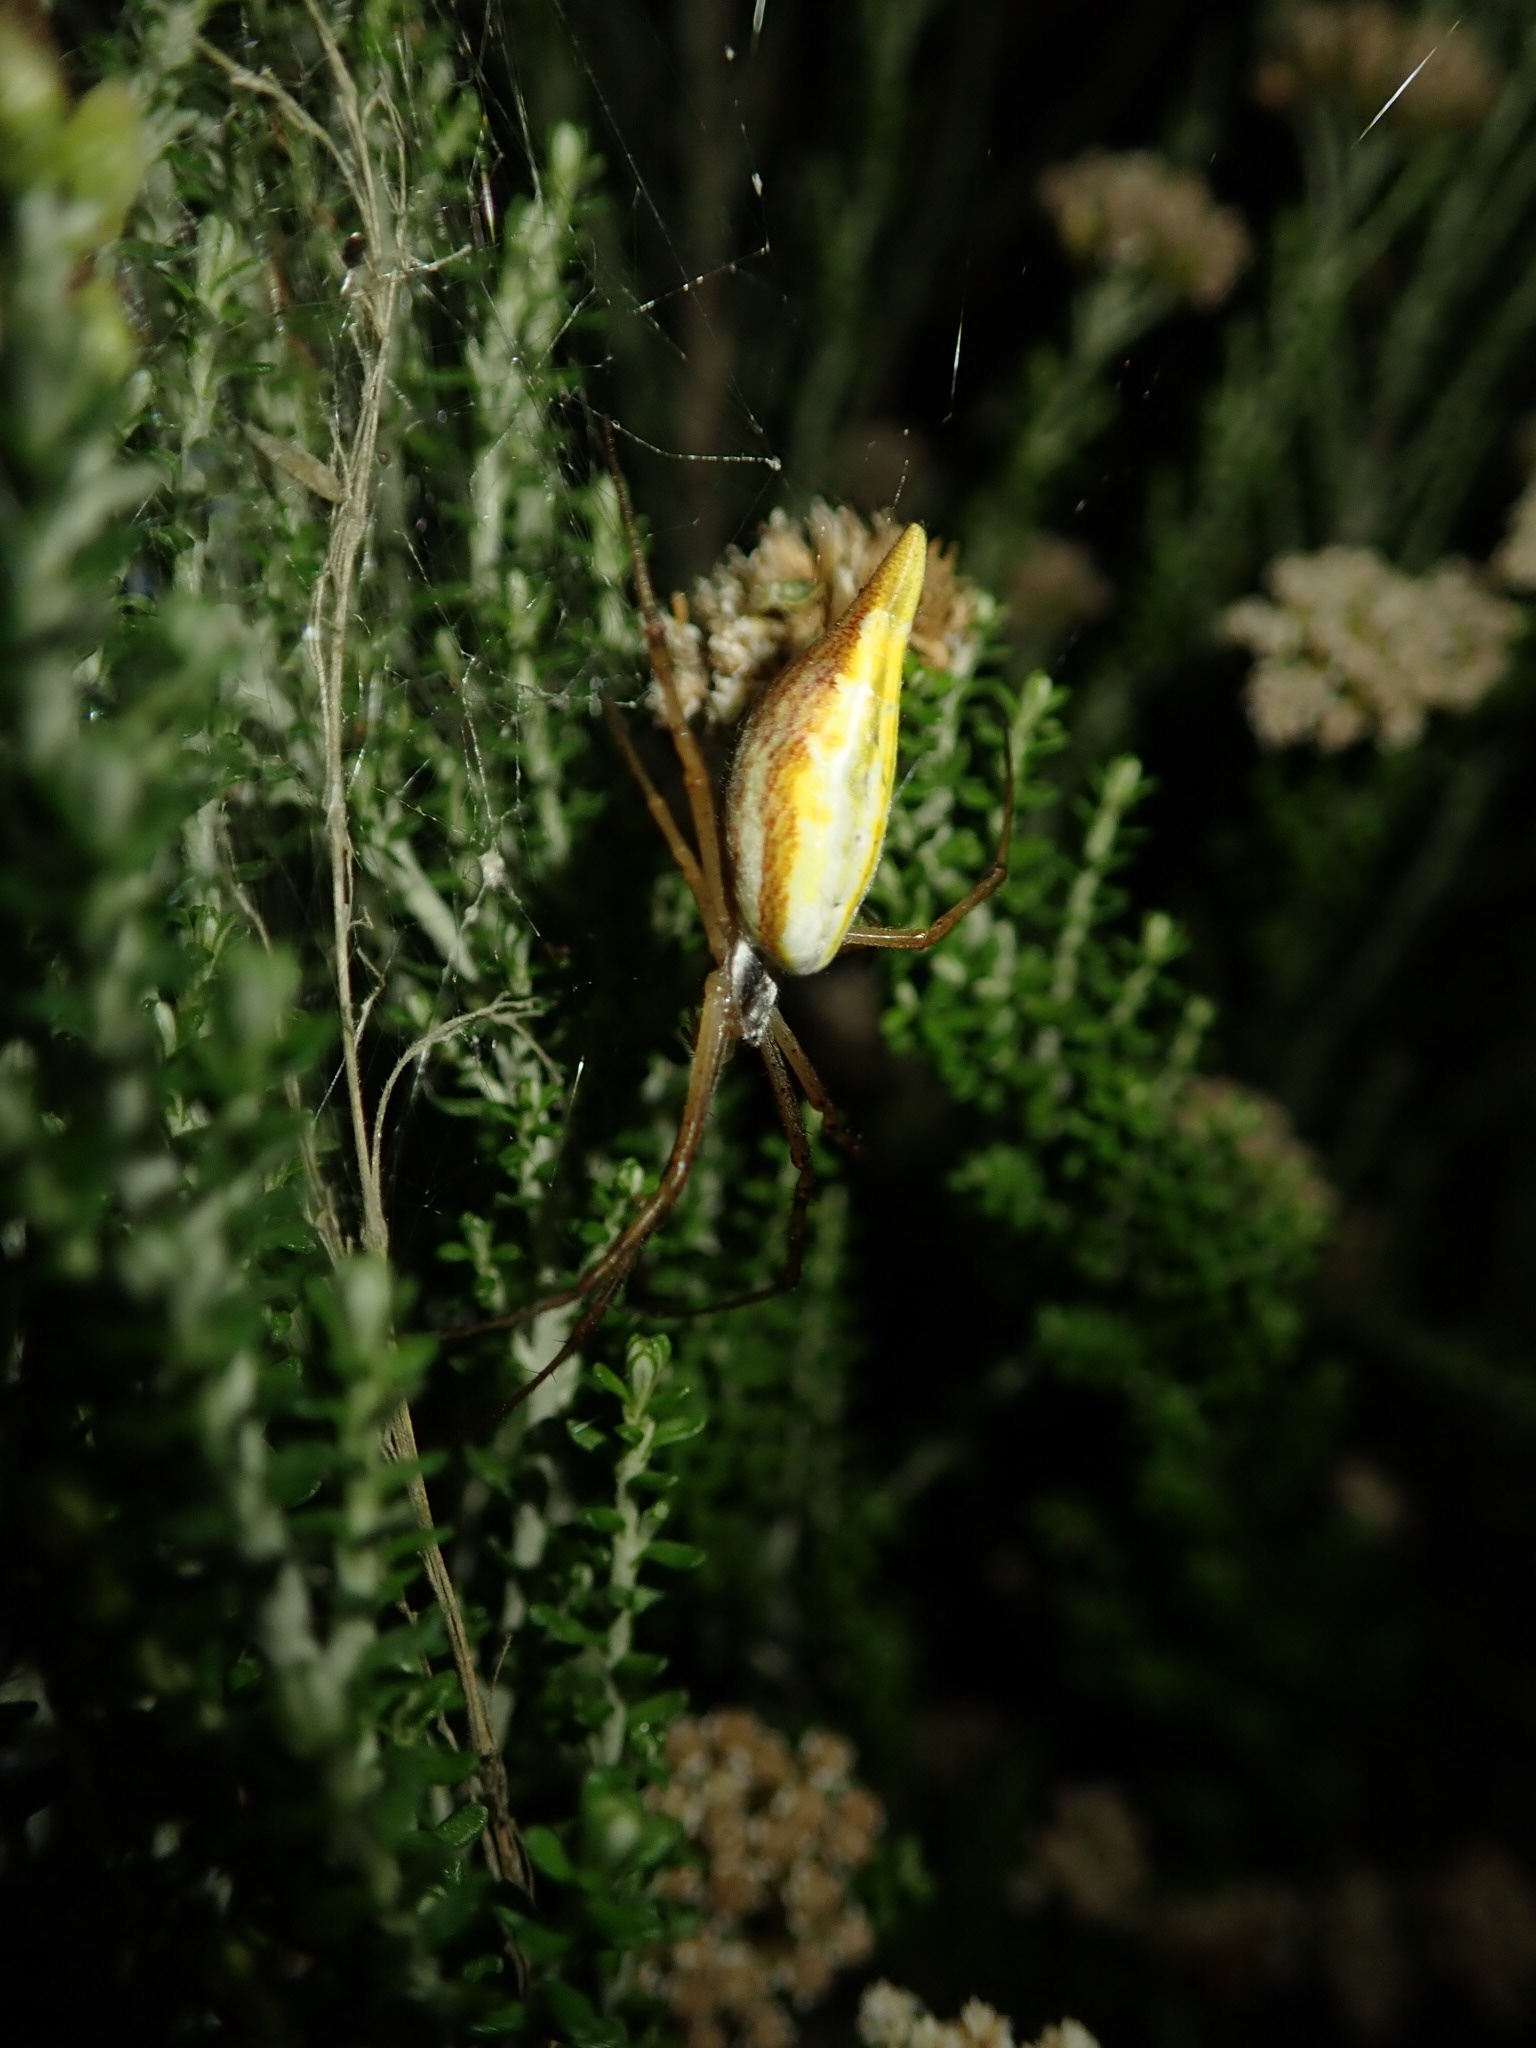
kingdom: Animalia
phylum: Arthropoda
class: Arachnida
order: Araneae
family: Araneidae
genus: Argiope
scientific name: Argiope protensa
